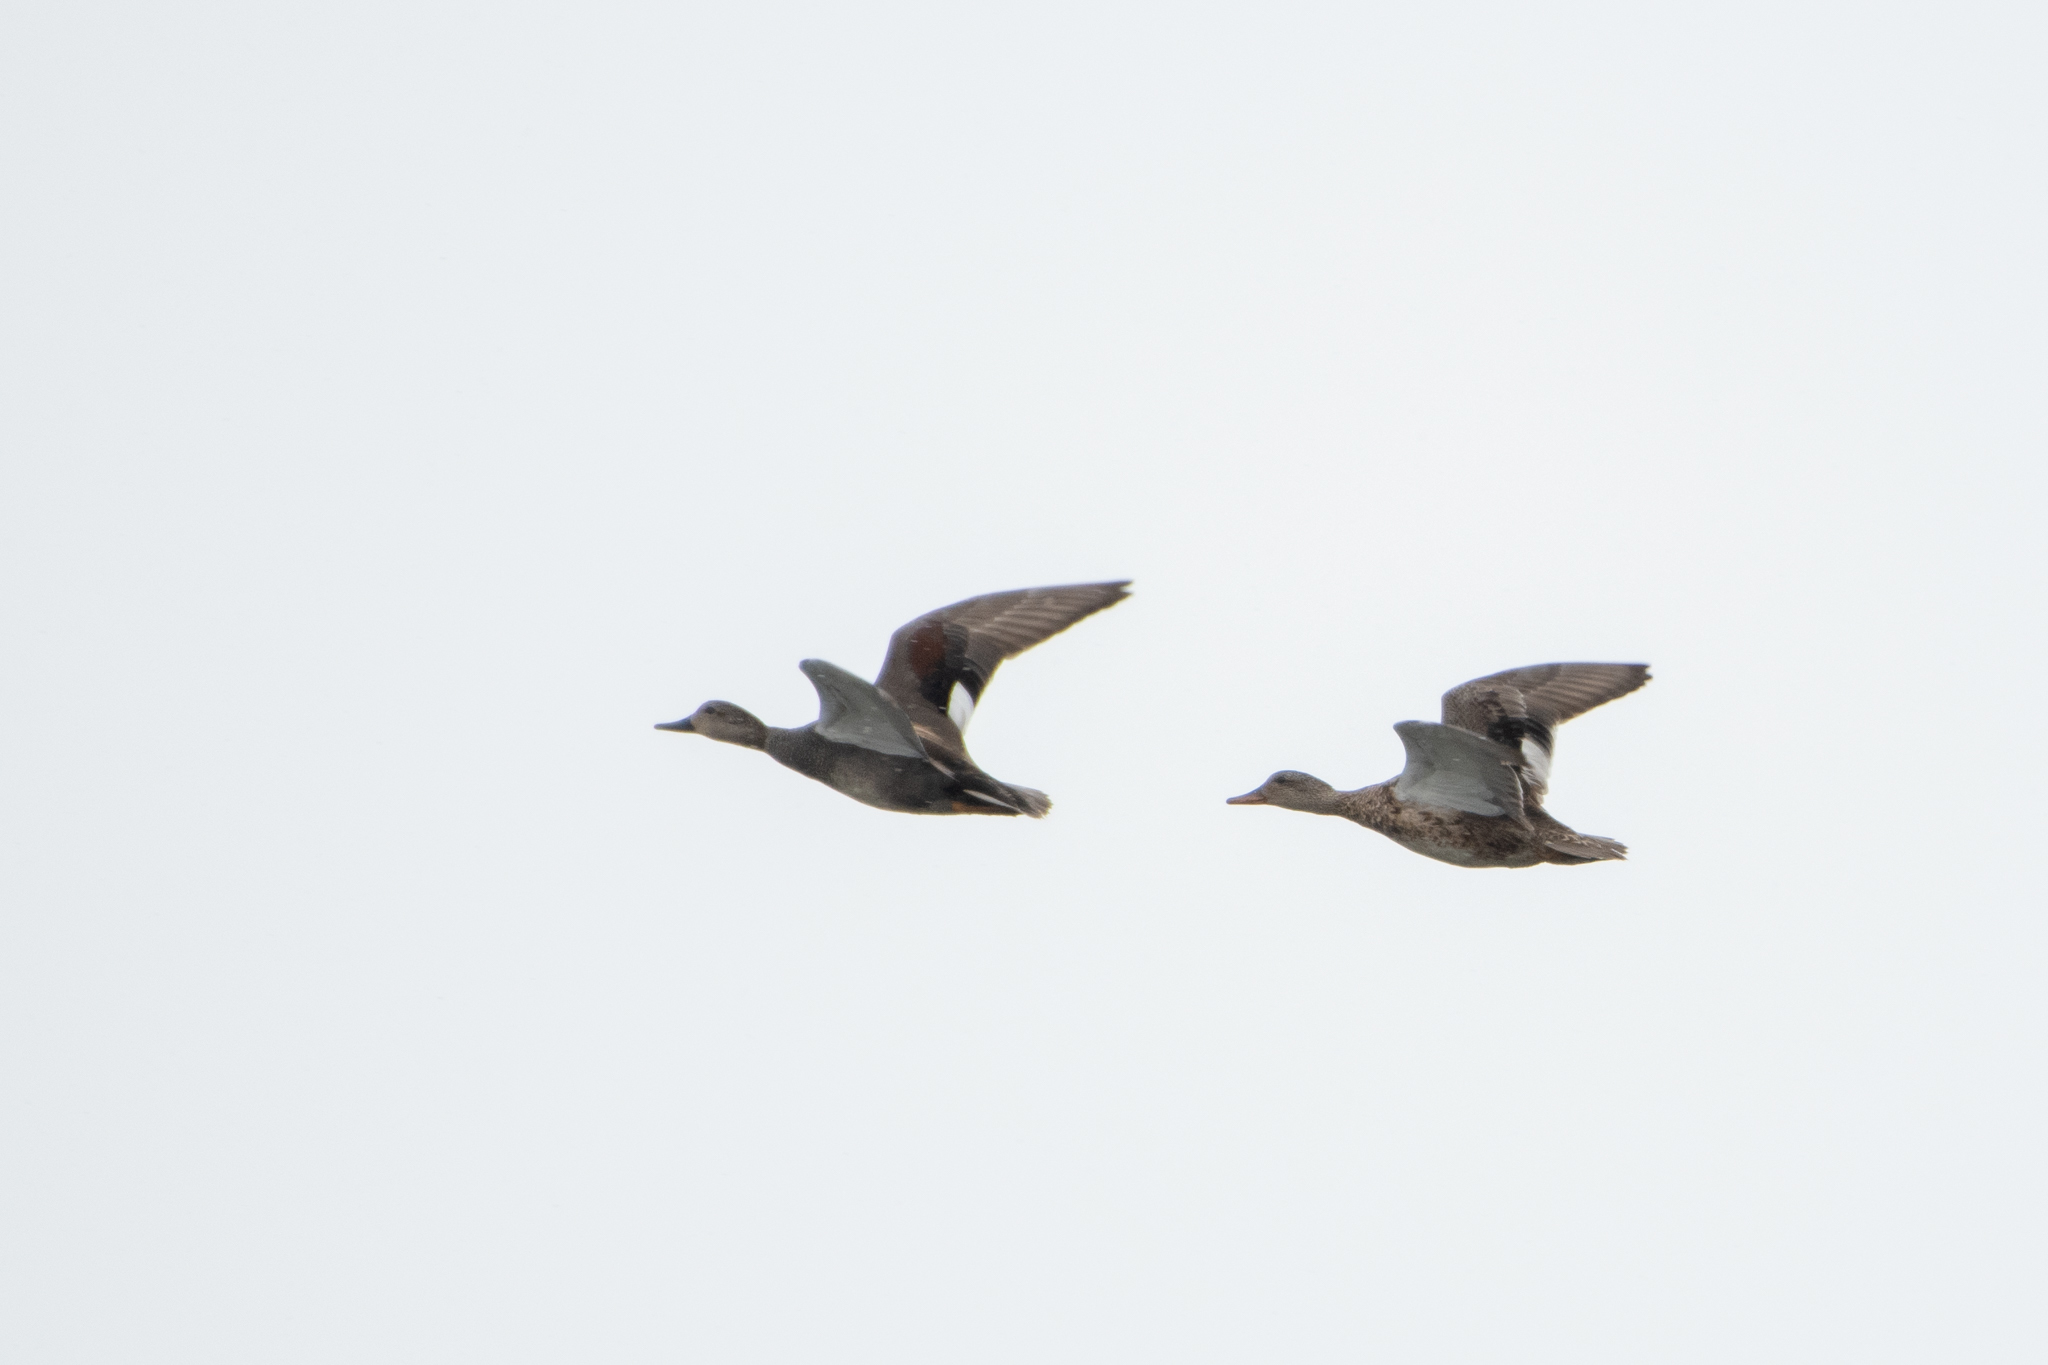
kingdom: Animalia
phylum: Chordata
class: Aves
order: Anseriformes
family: Anatidae
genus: Mareca
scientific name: Mareca strepera
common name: Gadwall
